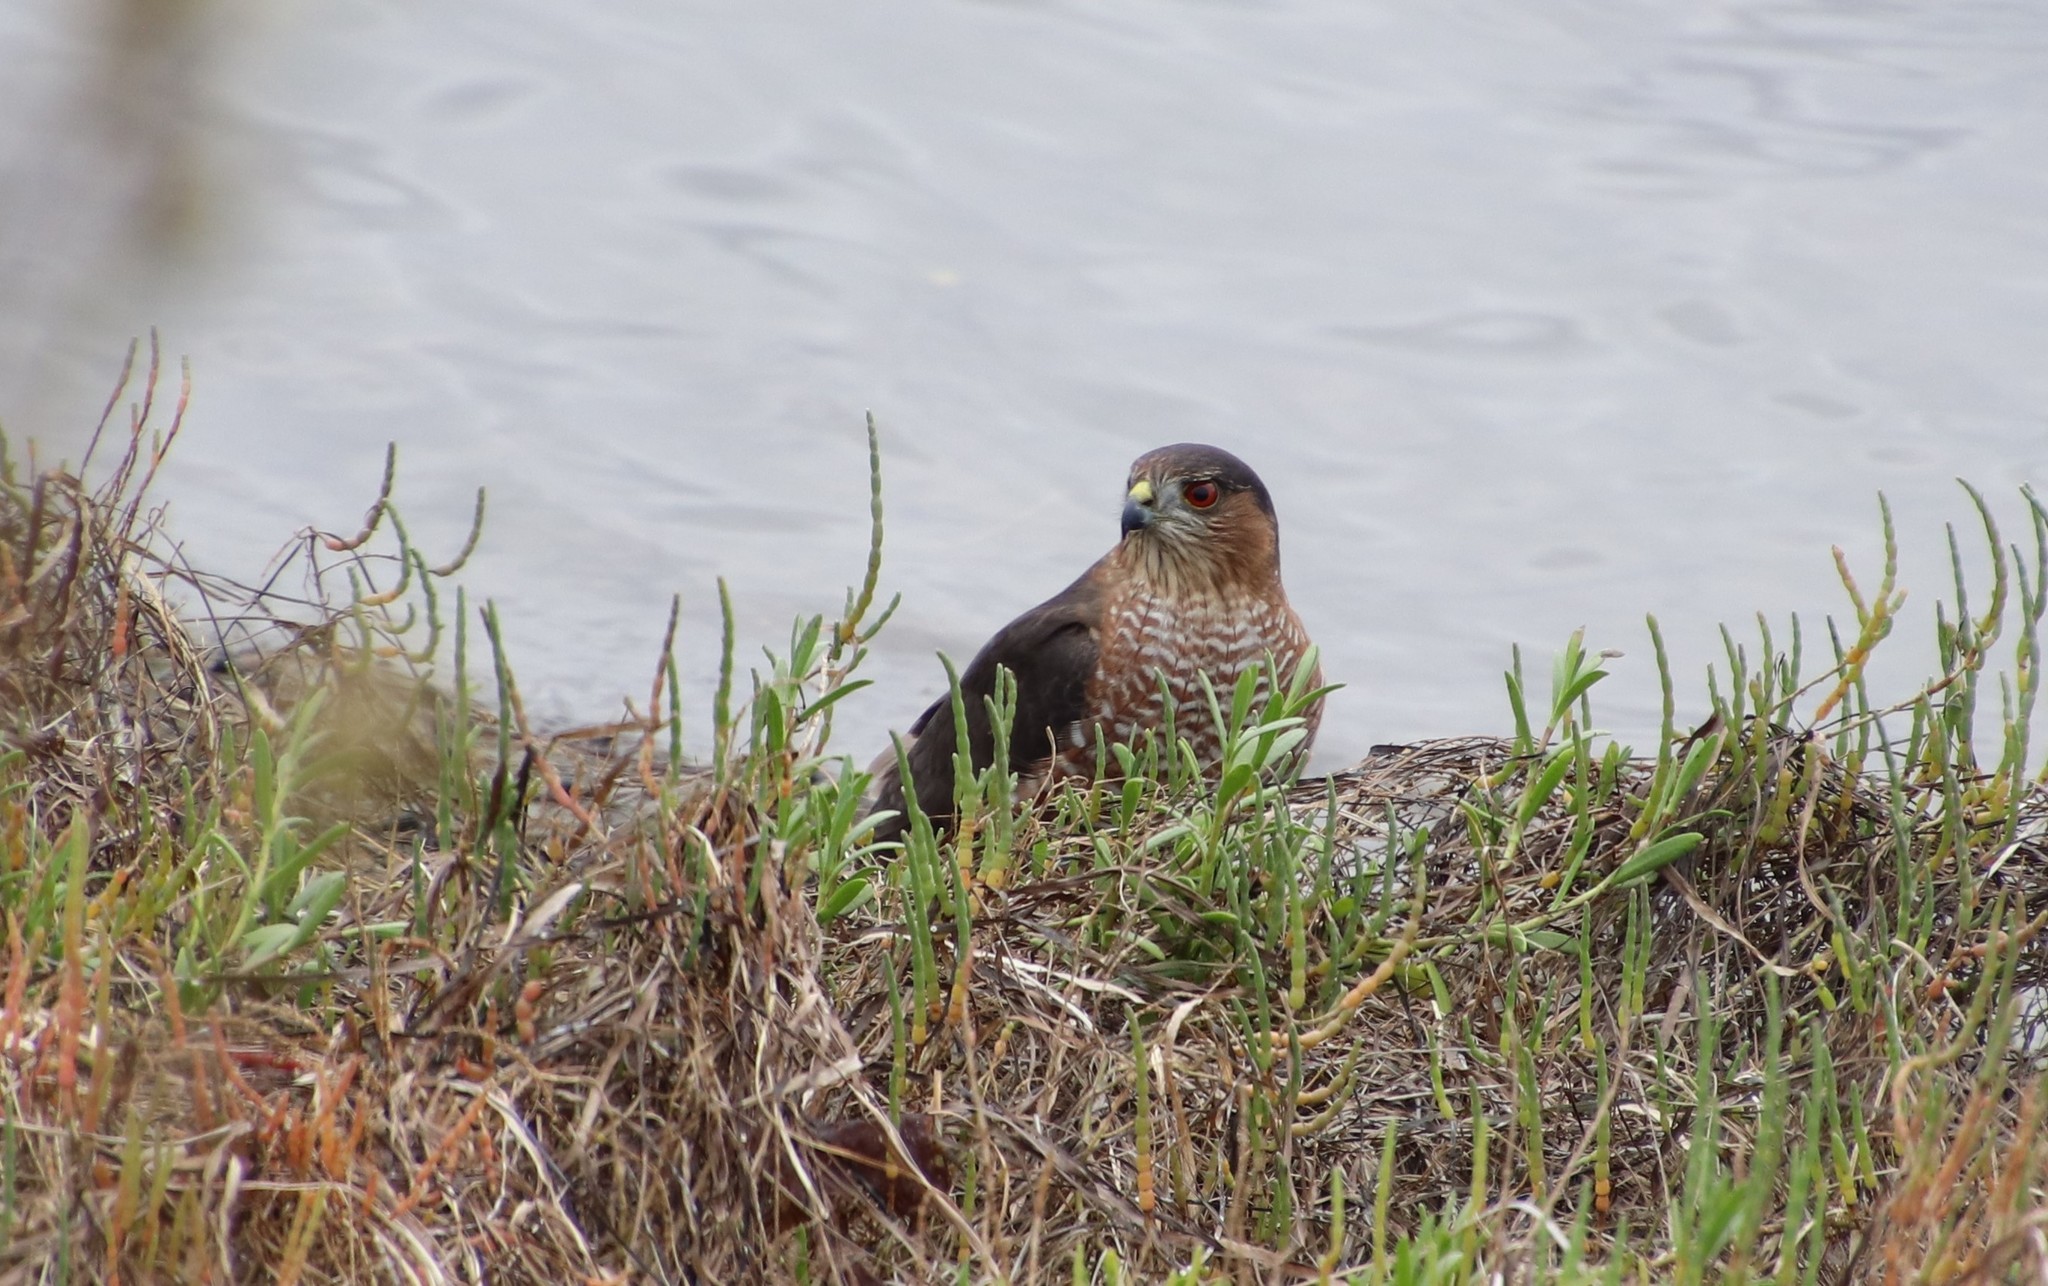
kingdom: Animalia
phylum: Chordata
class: Aves
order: Accipitriformes
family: Accipitridae
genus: Accipiter
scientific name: Accipiter cooperii
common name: Cooper's hawk
